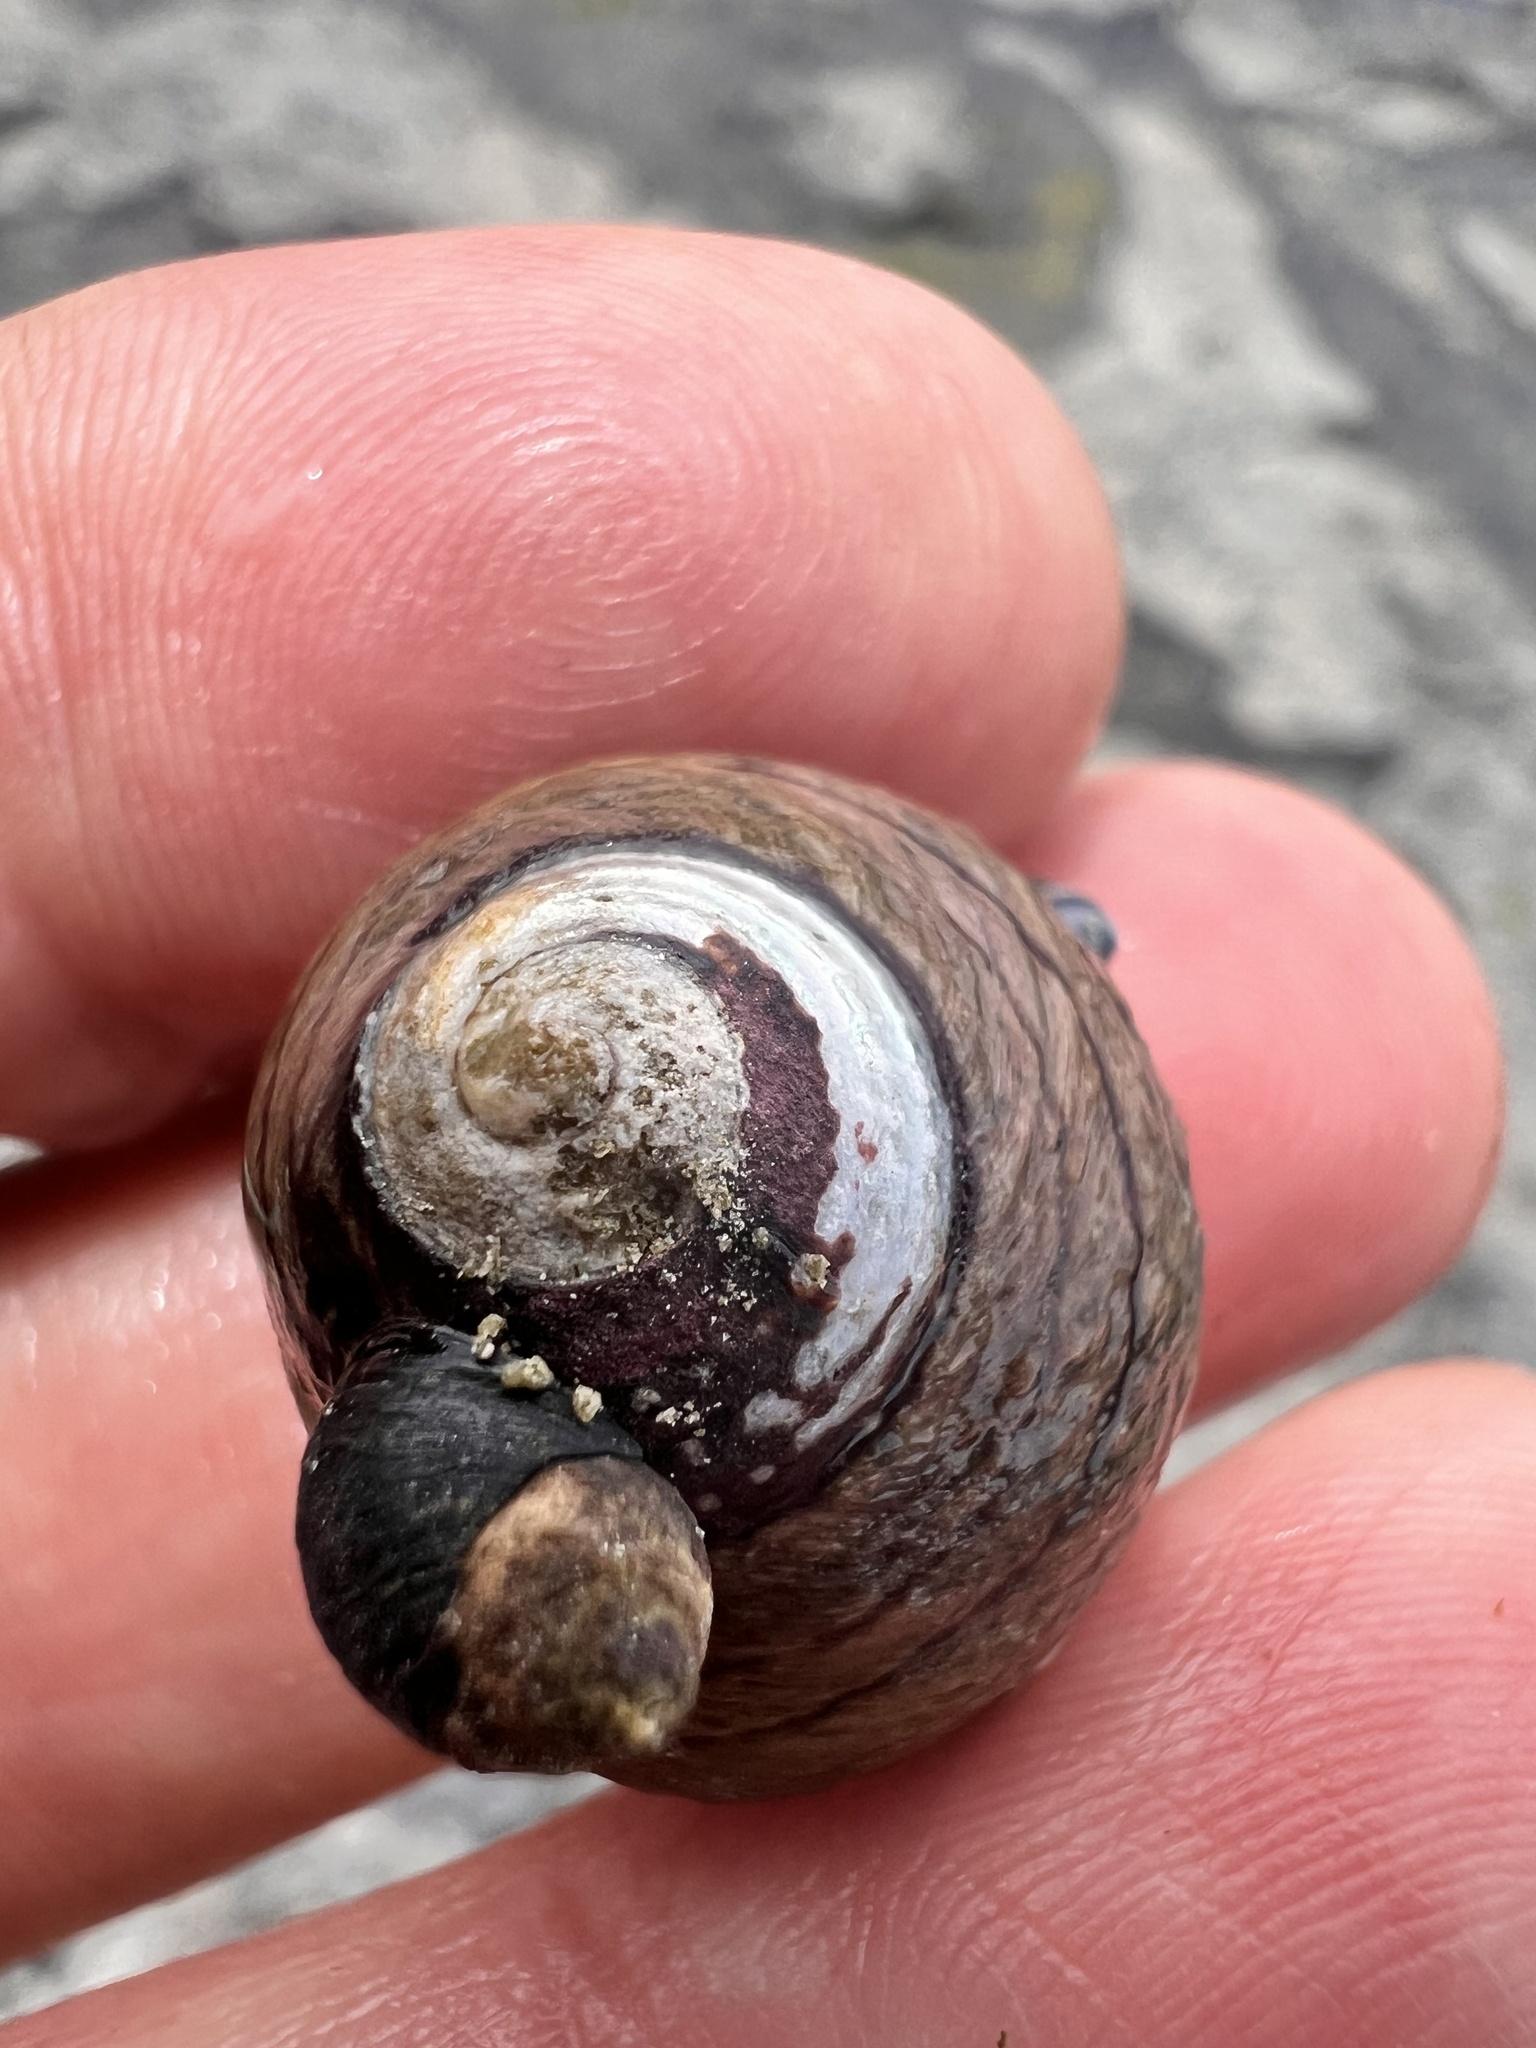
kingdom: Animalia
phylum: Mollusca
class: Gastropoda
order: Trochida
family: Trochidae
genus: Diloma
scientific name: Diloma aethiops
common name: Scorched monodont
